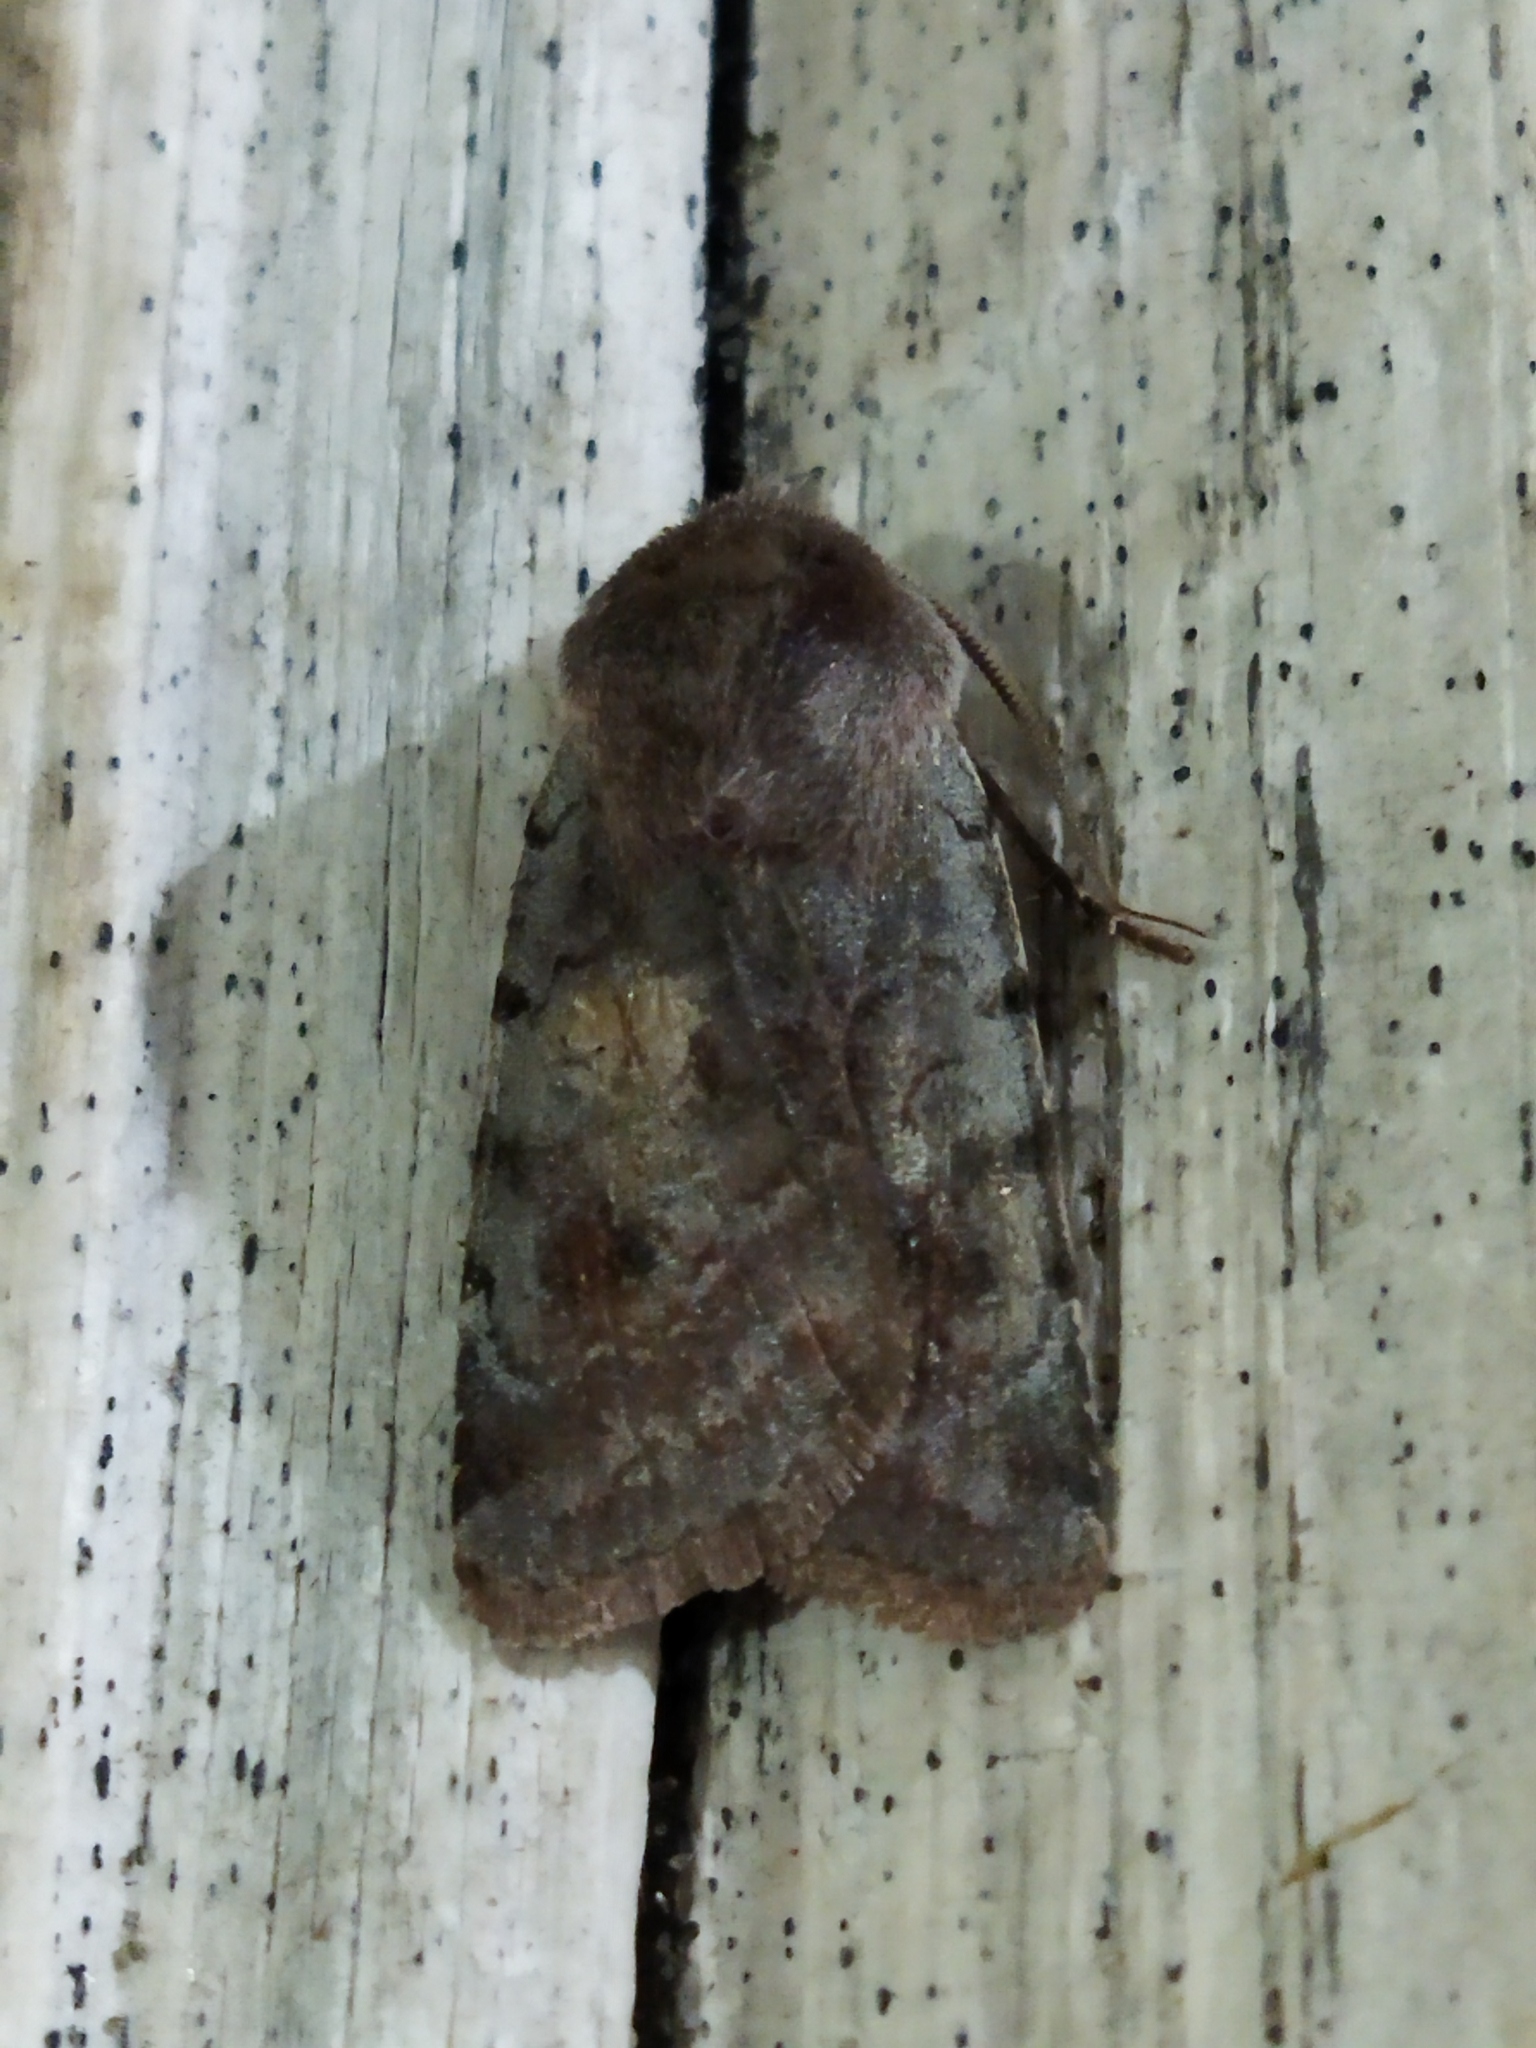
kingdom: Animalia
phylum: Arthropoda
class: Insecta
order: Lepidoptera
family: Noctuidae
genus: Cerastis
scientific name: Cerastis rubricosa
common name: Red chestnut
